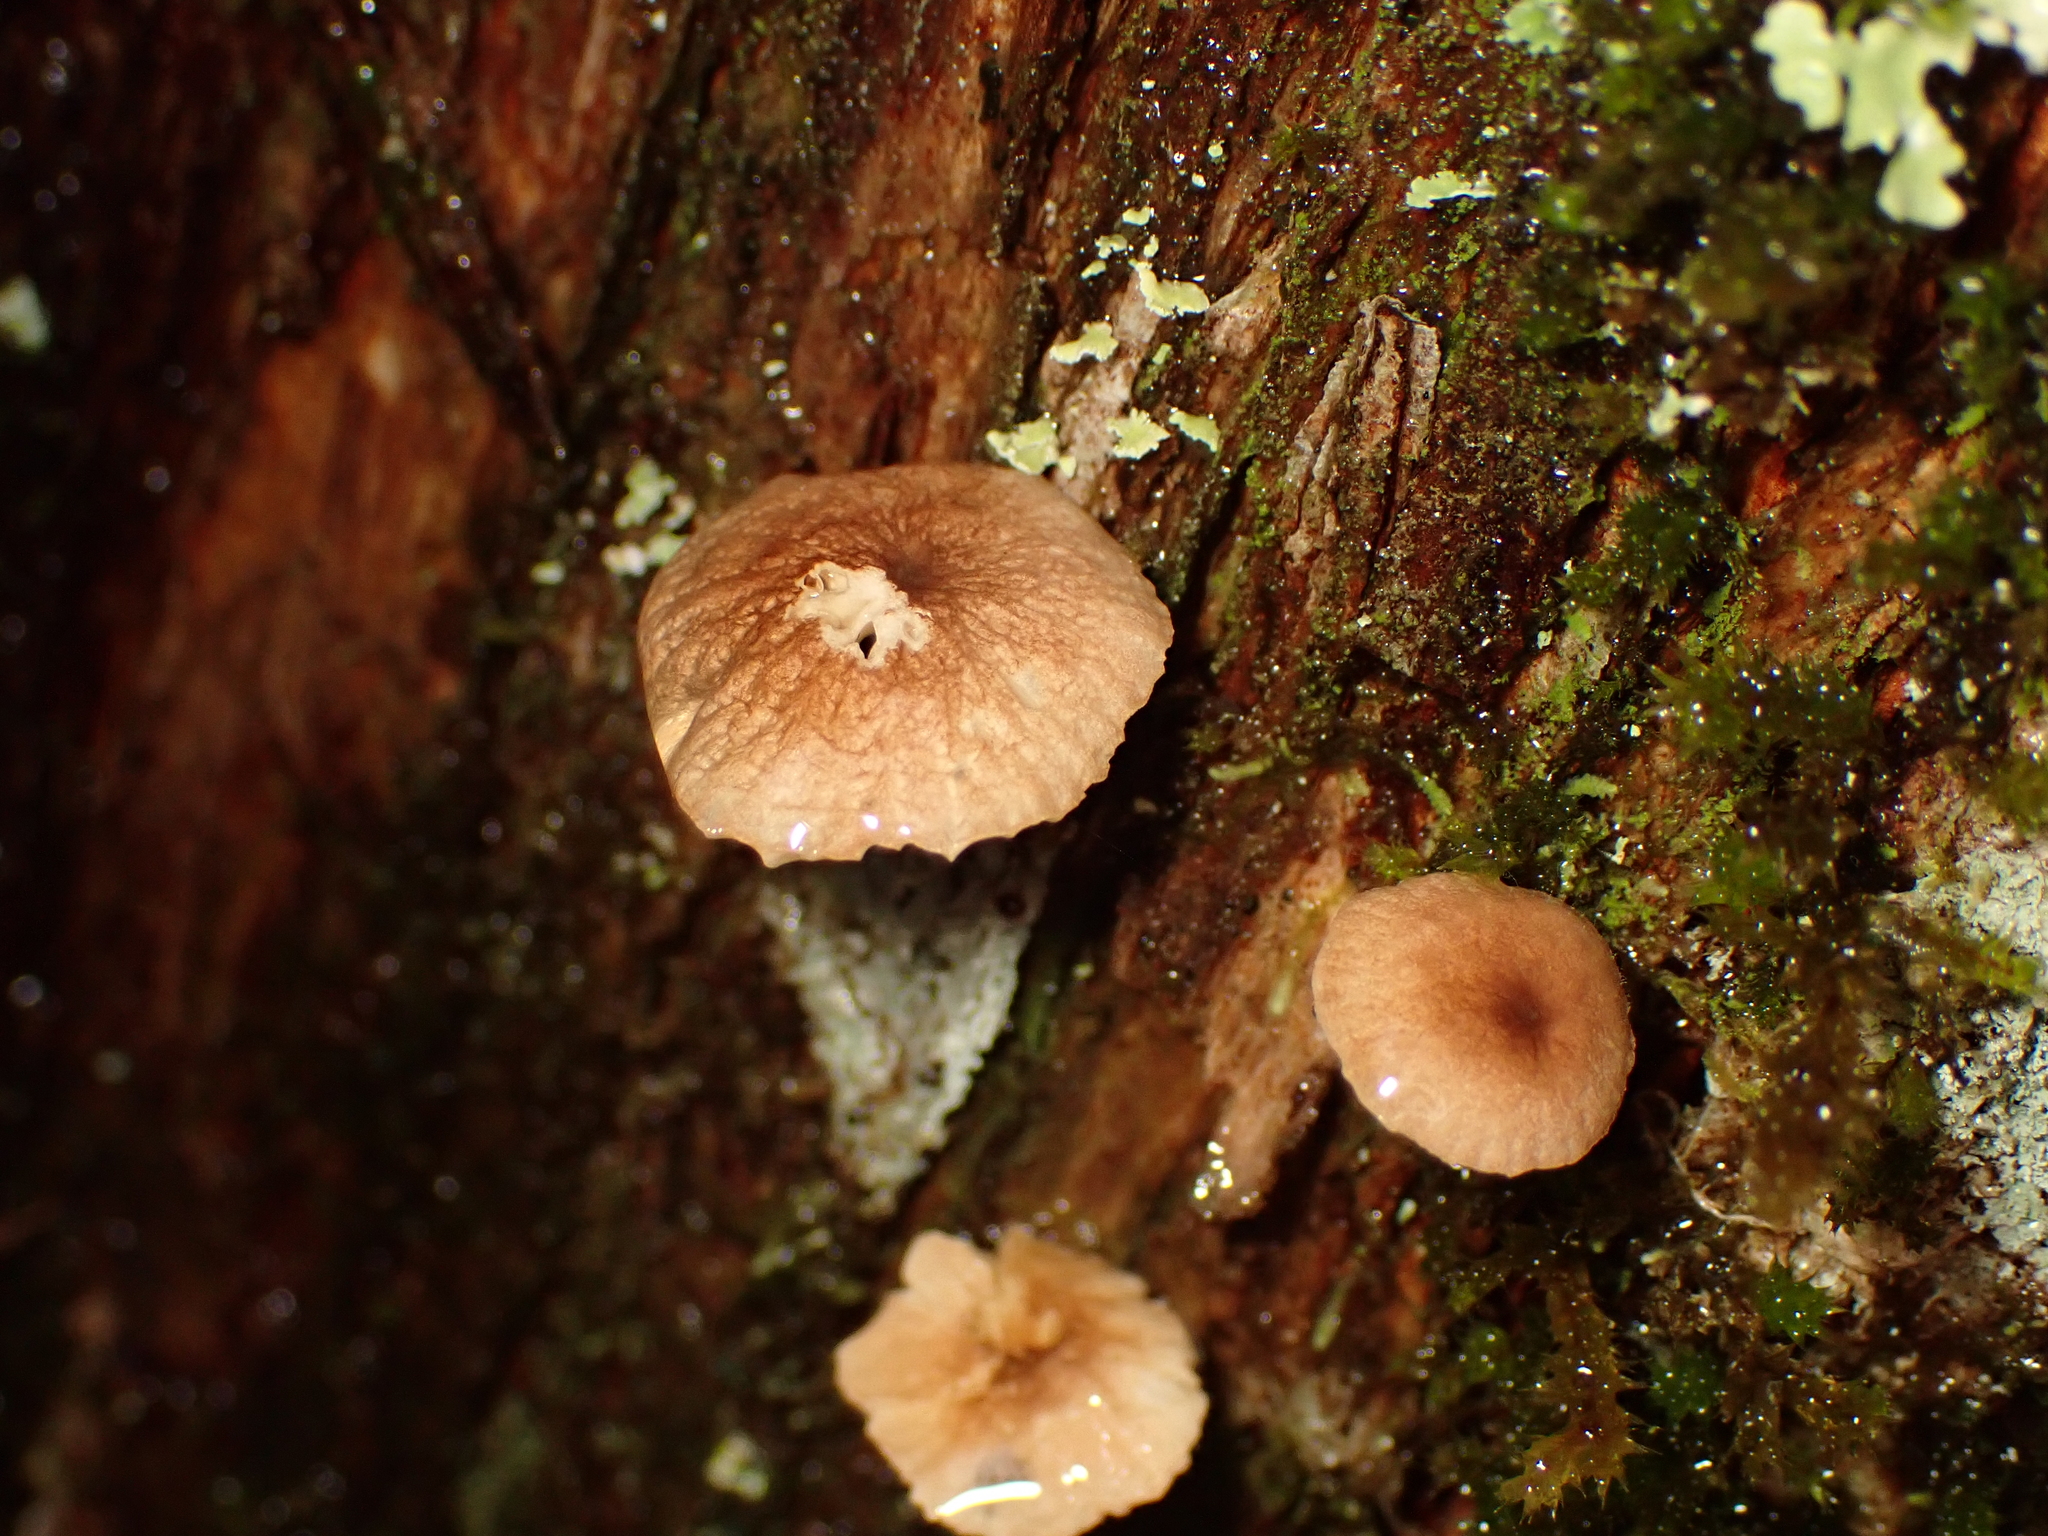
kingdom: Fungi
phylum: Basidiomycota
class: Agaricomycetes
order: Agaricales
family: Omphalotaceae
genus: Mycetinis
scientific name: Mycetinis curraniae
